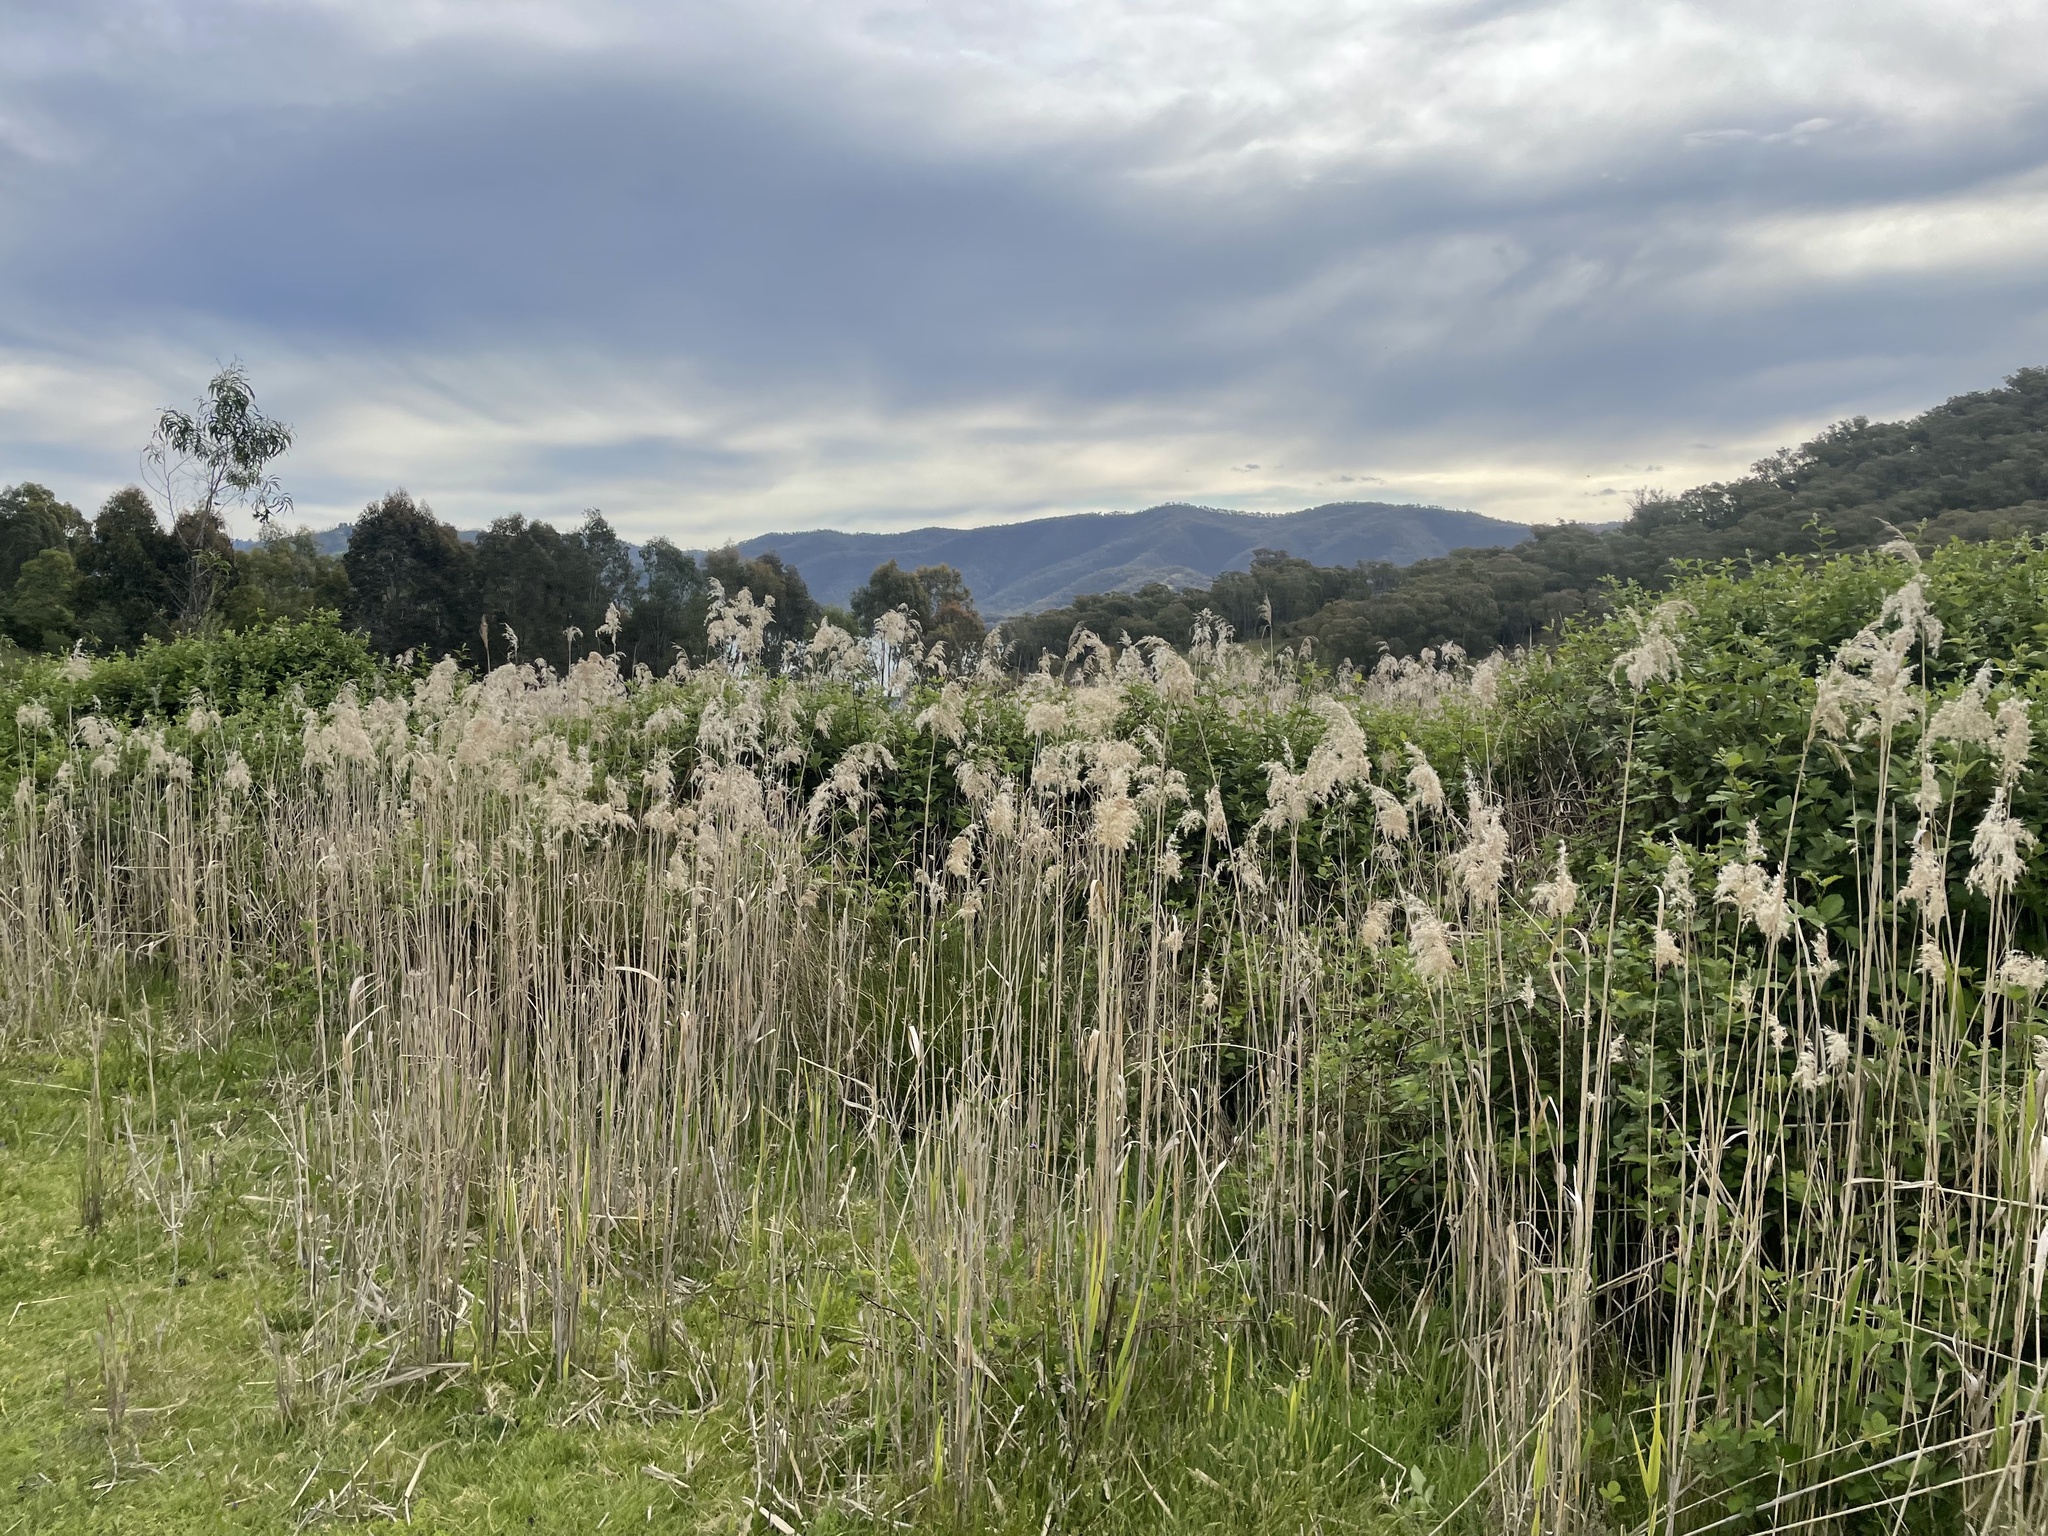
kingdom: Plantae
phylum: Tracheophyta
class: Liliopsida
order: Poales
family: Poaceae
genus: Phragmites
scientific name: Phragmites australis
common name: Common reed
